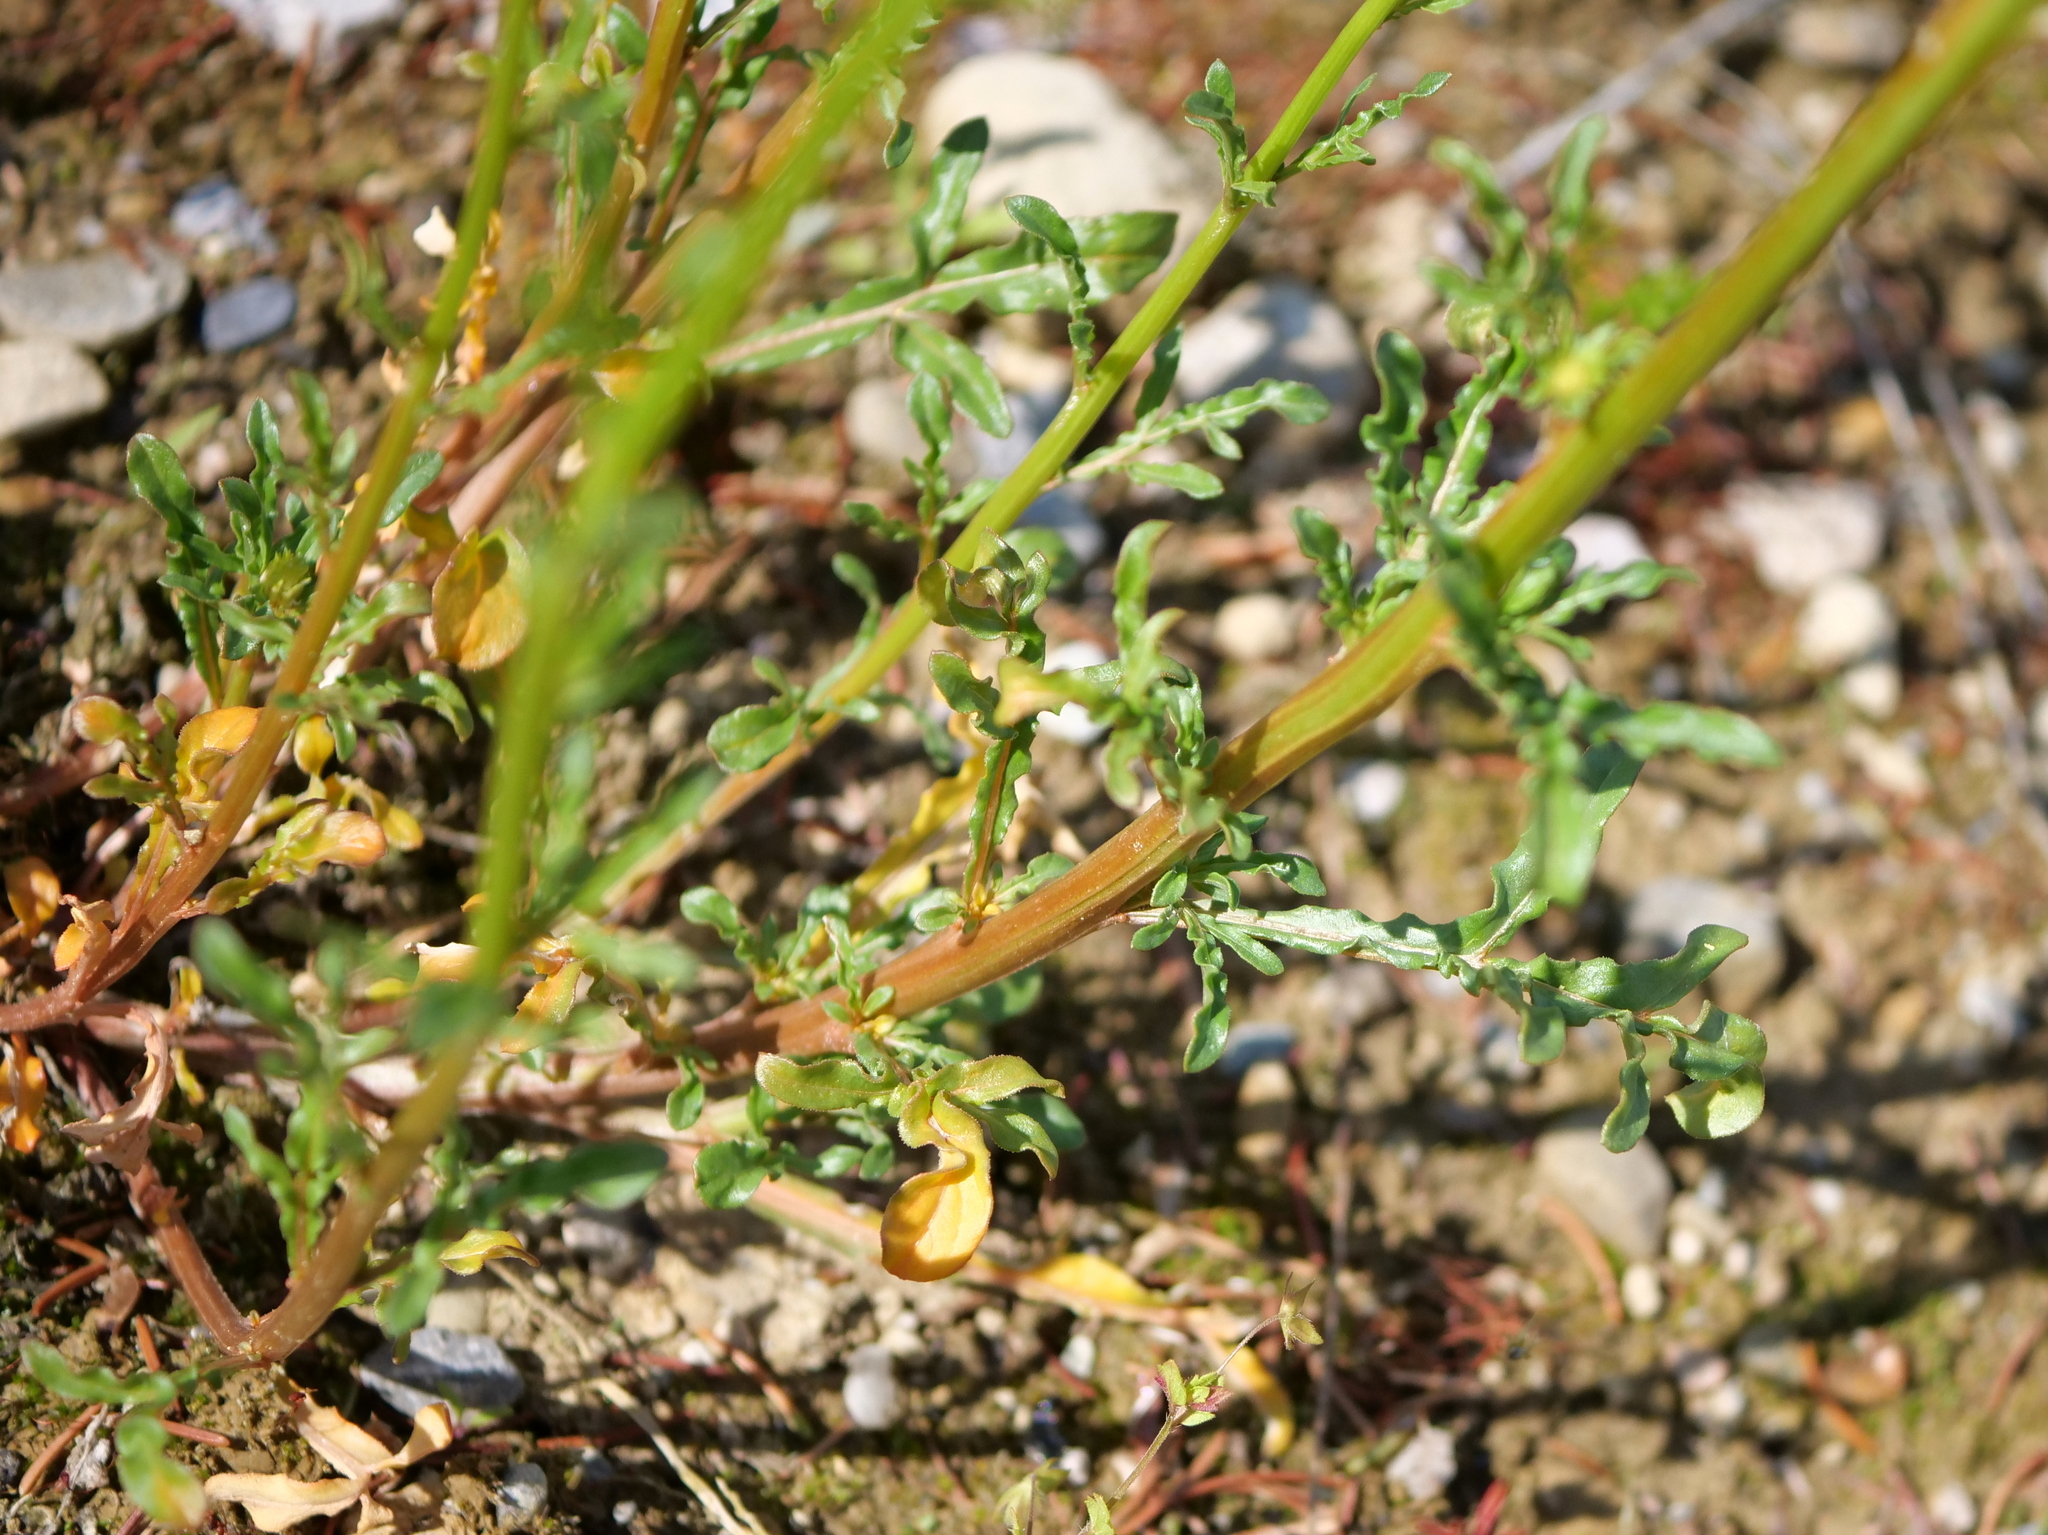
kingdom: Plantae
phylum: Tracheophyta
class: Magnoliopsida
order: Brassicales
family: Resedaceae
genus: Reseda
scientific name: Reseda lutea
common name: Wild mignonette
